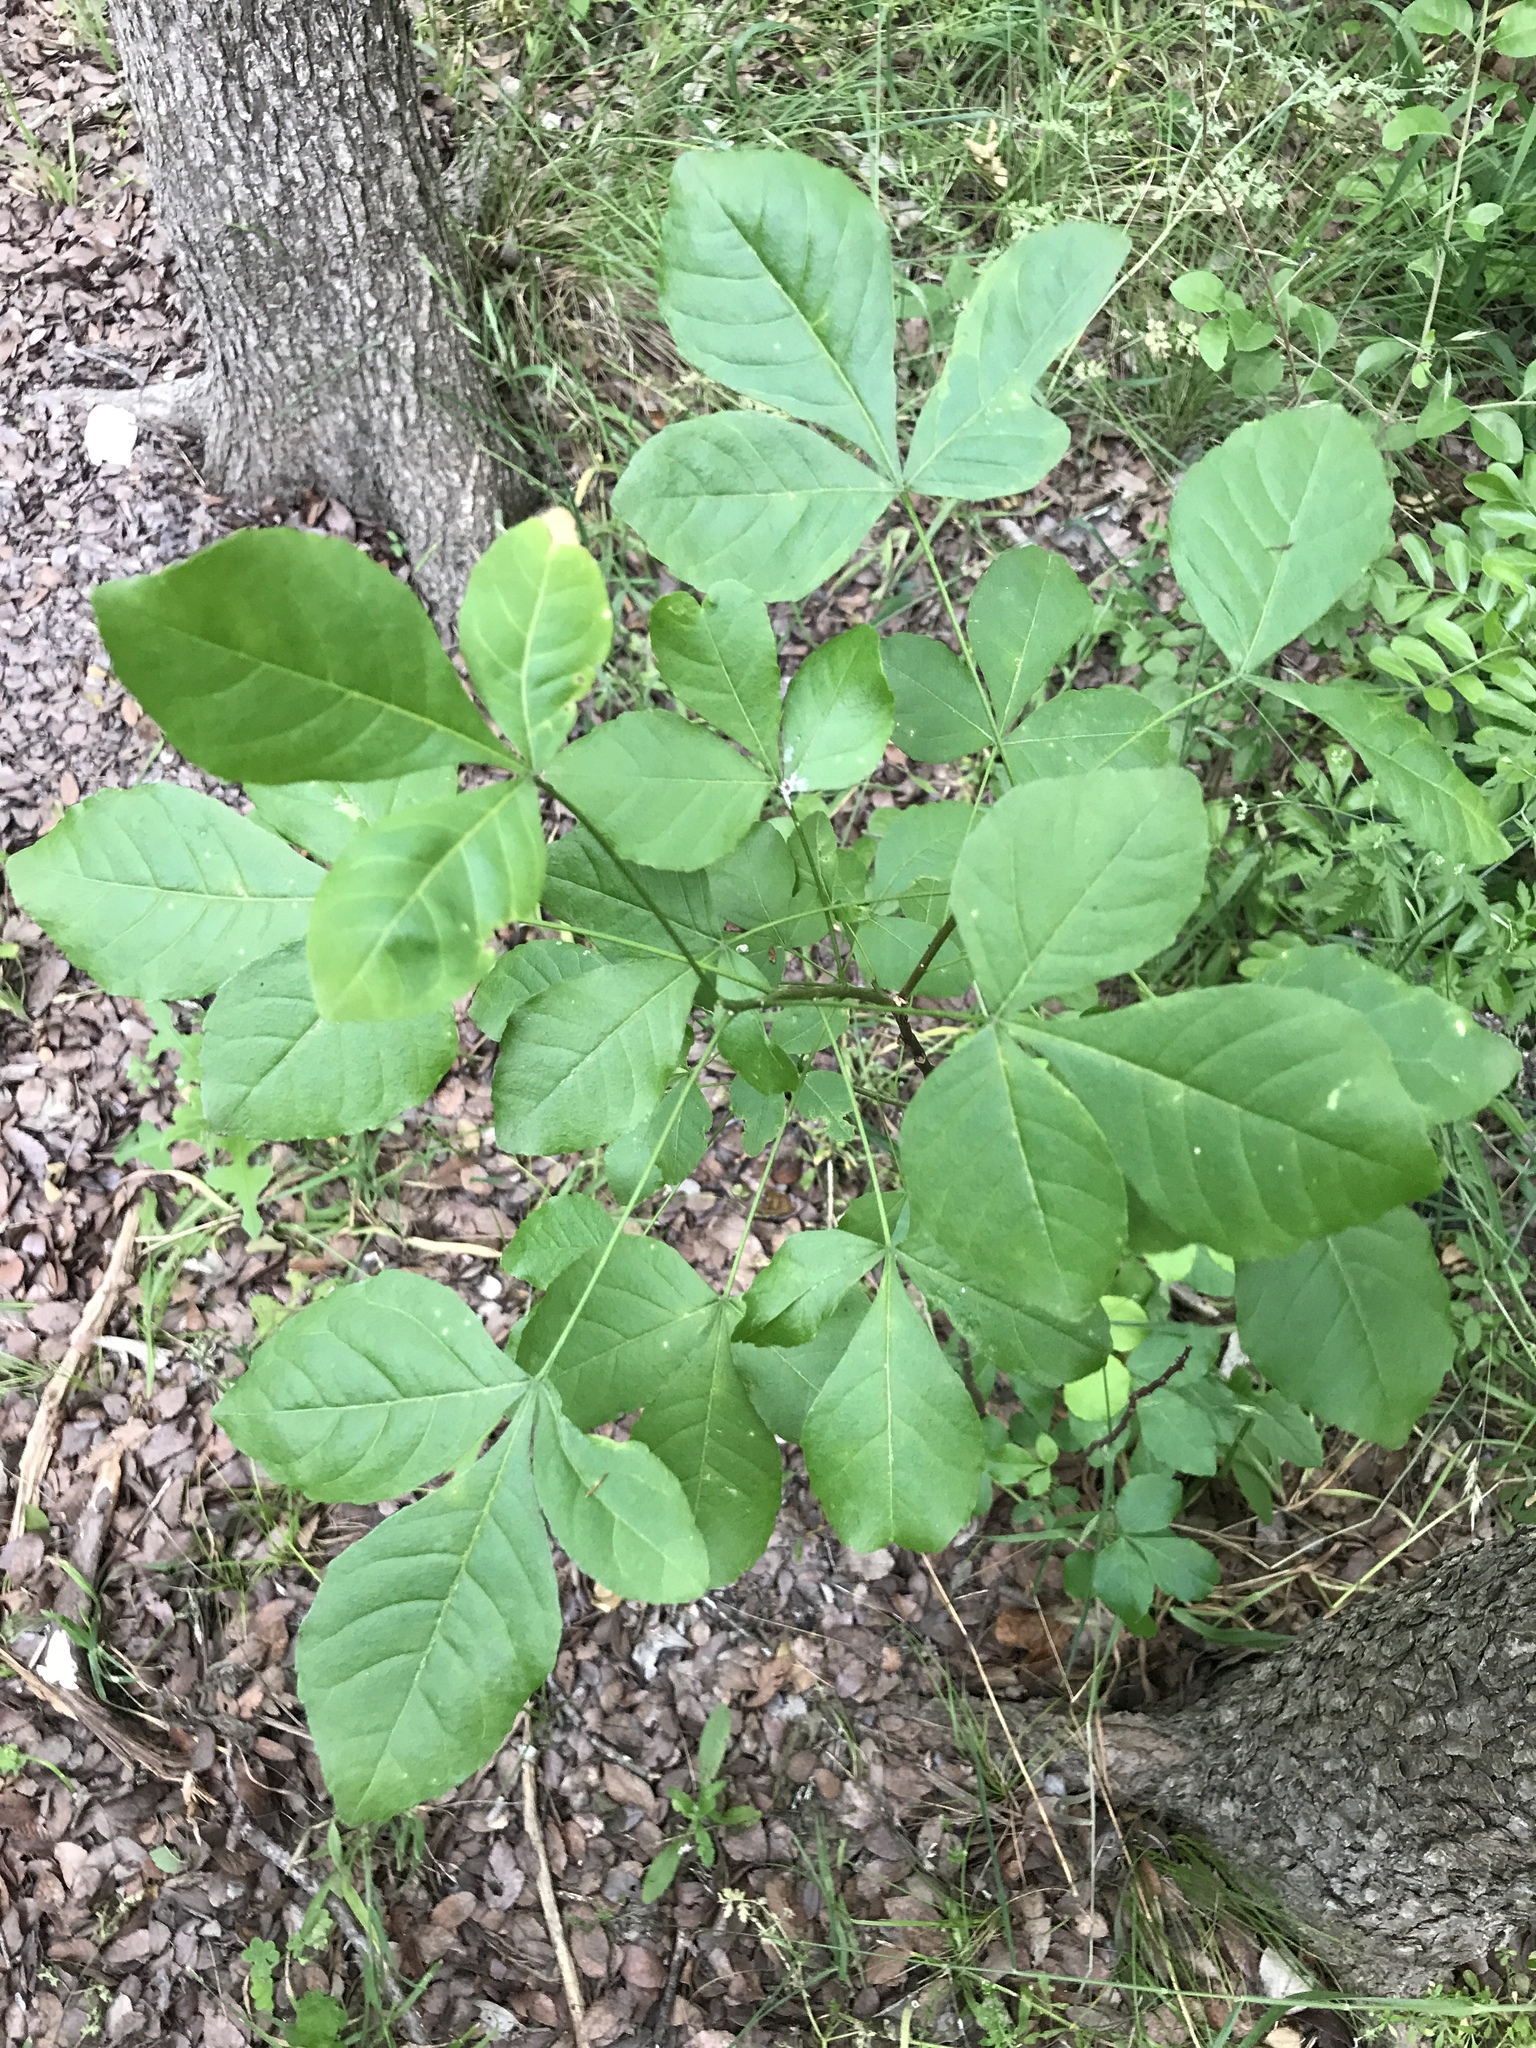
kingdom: Plantae
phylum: Tracheophyta
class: Magnoliopsida
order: Sapindales
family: Rutaceae
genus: Ptelea
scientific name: Ptelea trifoliata
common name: Common hop-tree
